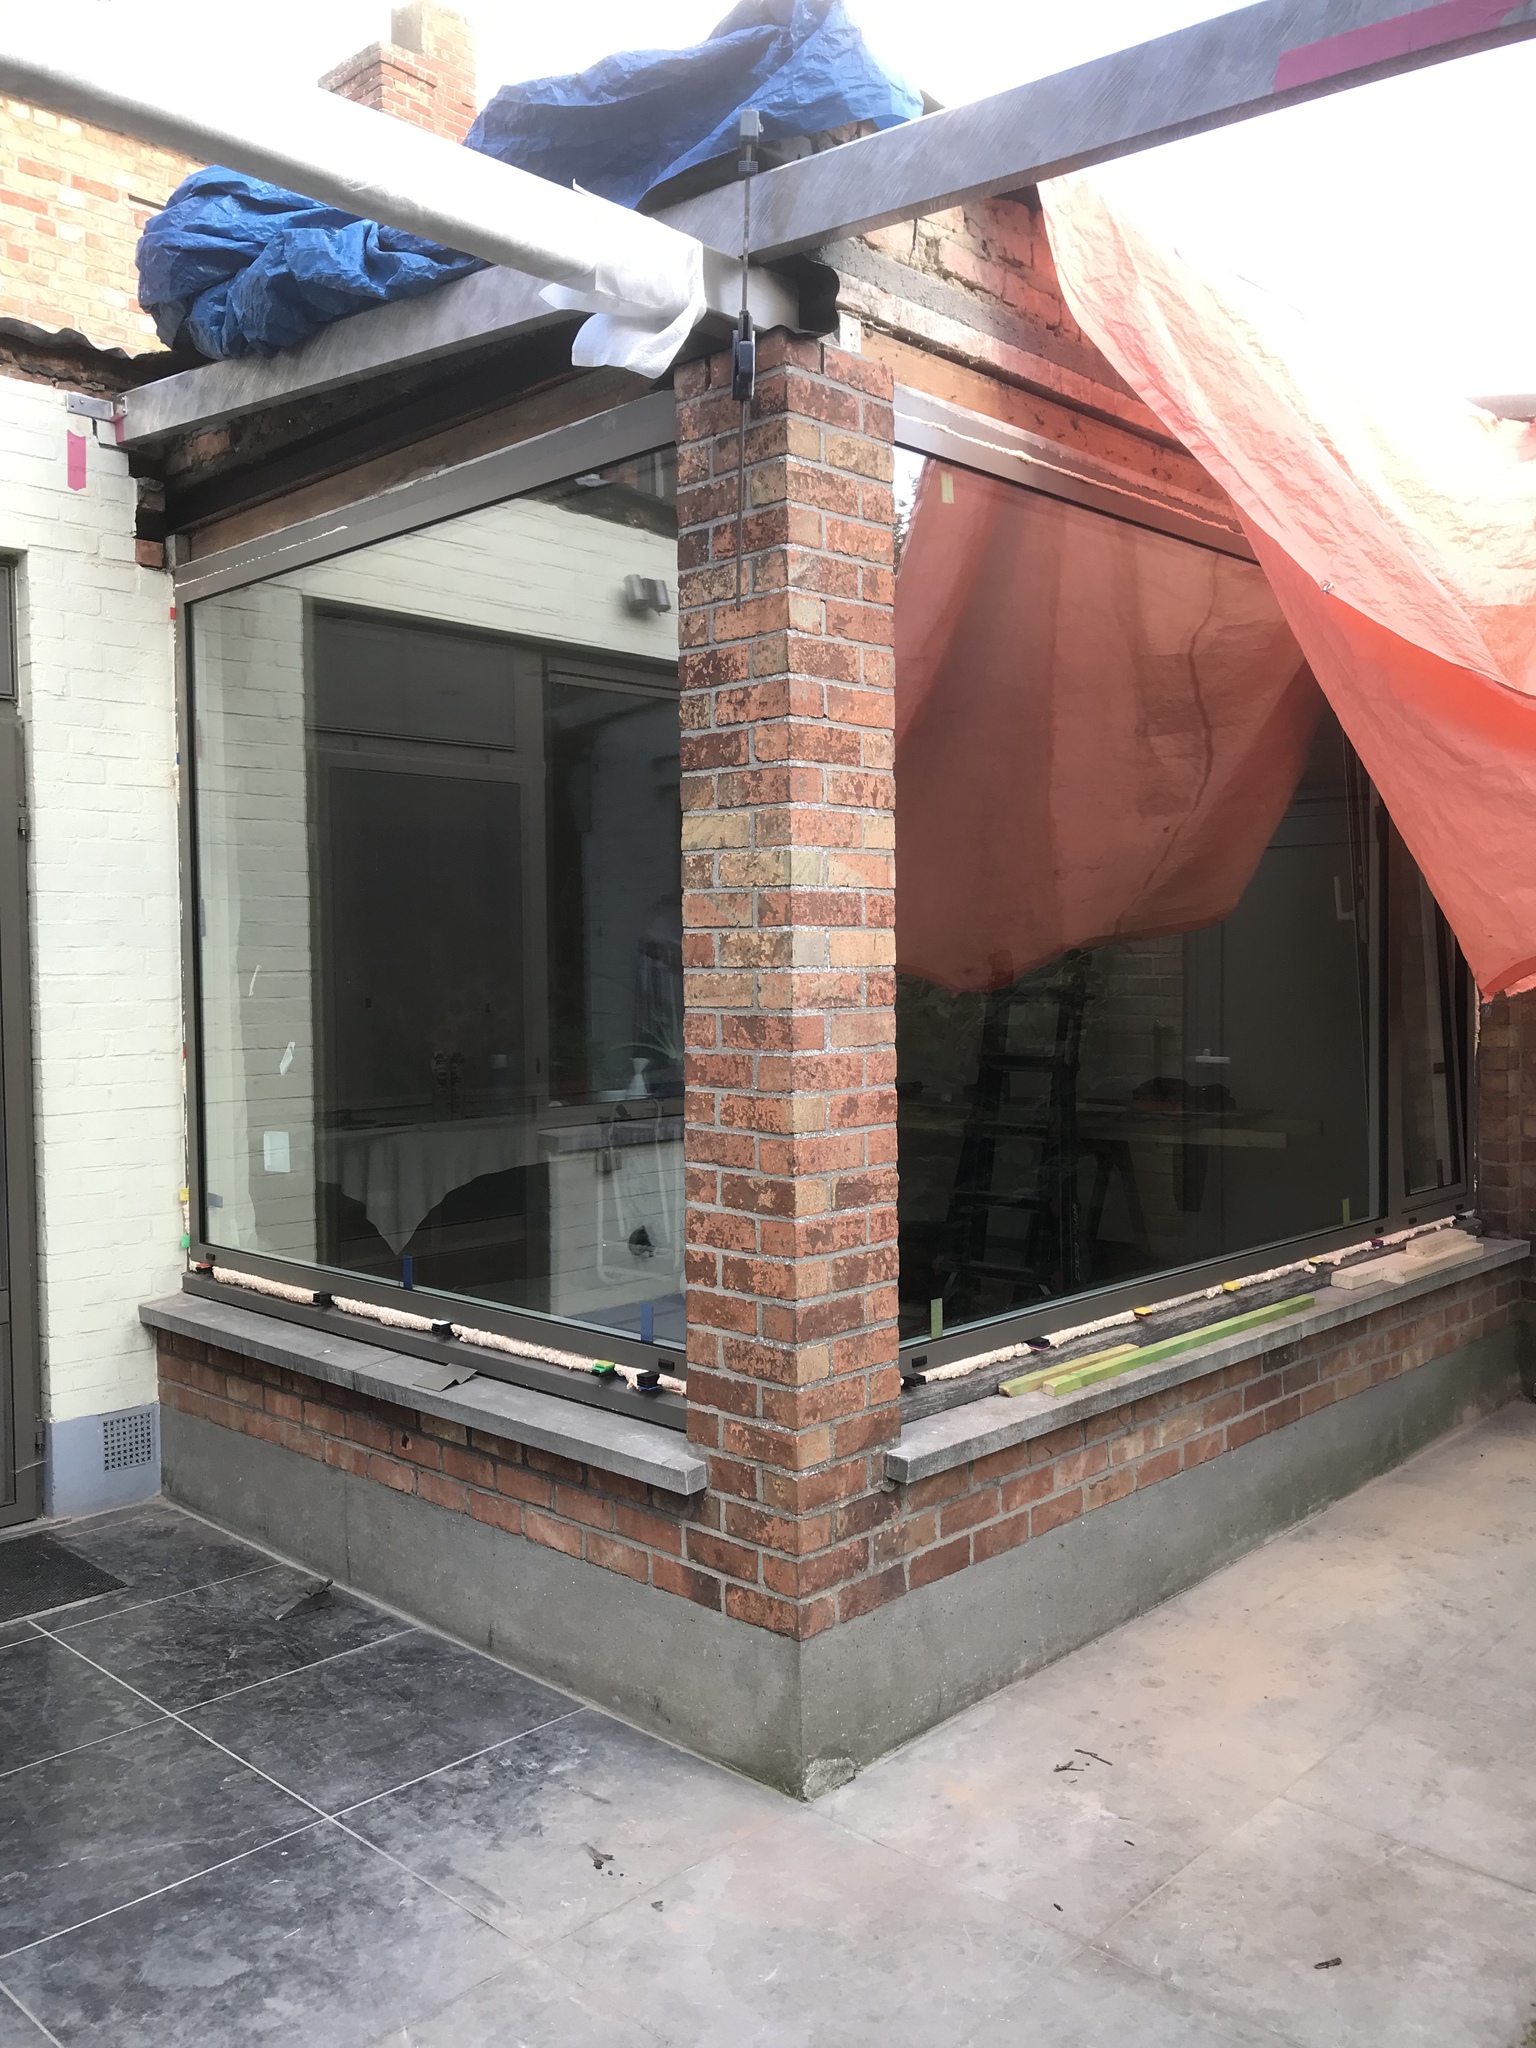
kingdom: Animalia
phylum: Arthropoda
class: Insecta
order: Hymenoptera
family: Vespidae
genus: Vespa
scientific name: Vespa velutina
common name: Asian hornet
